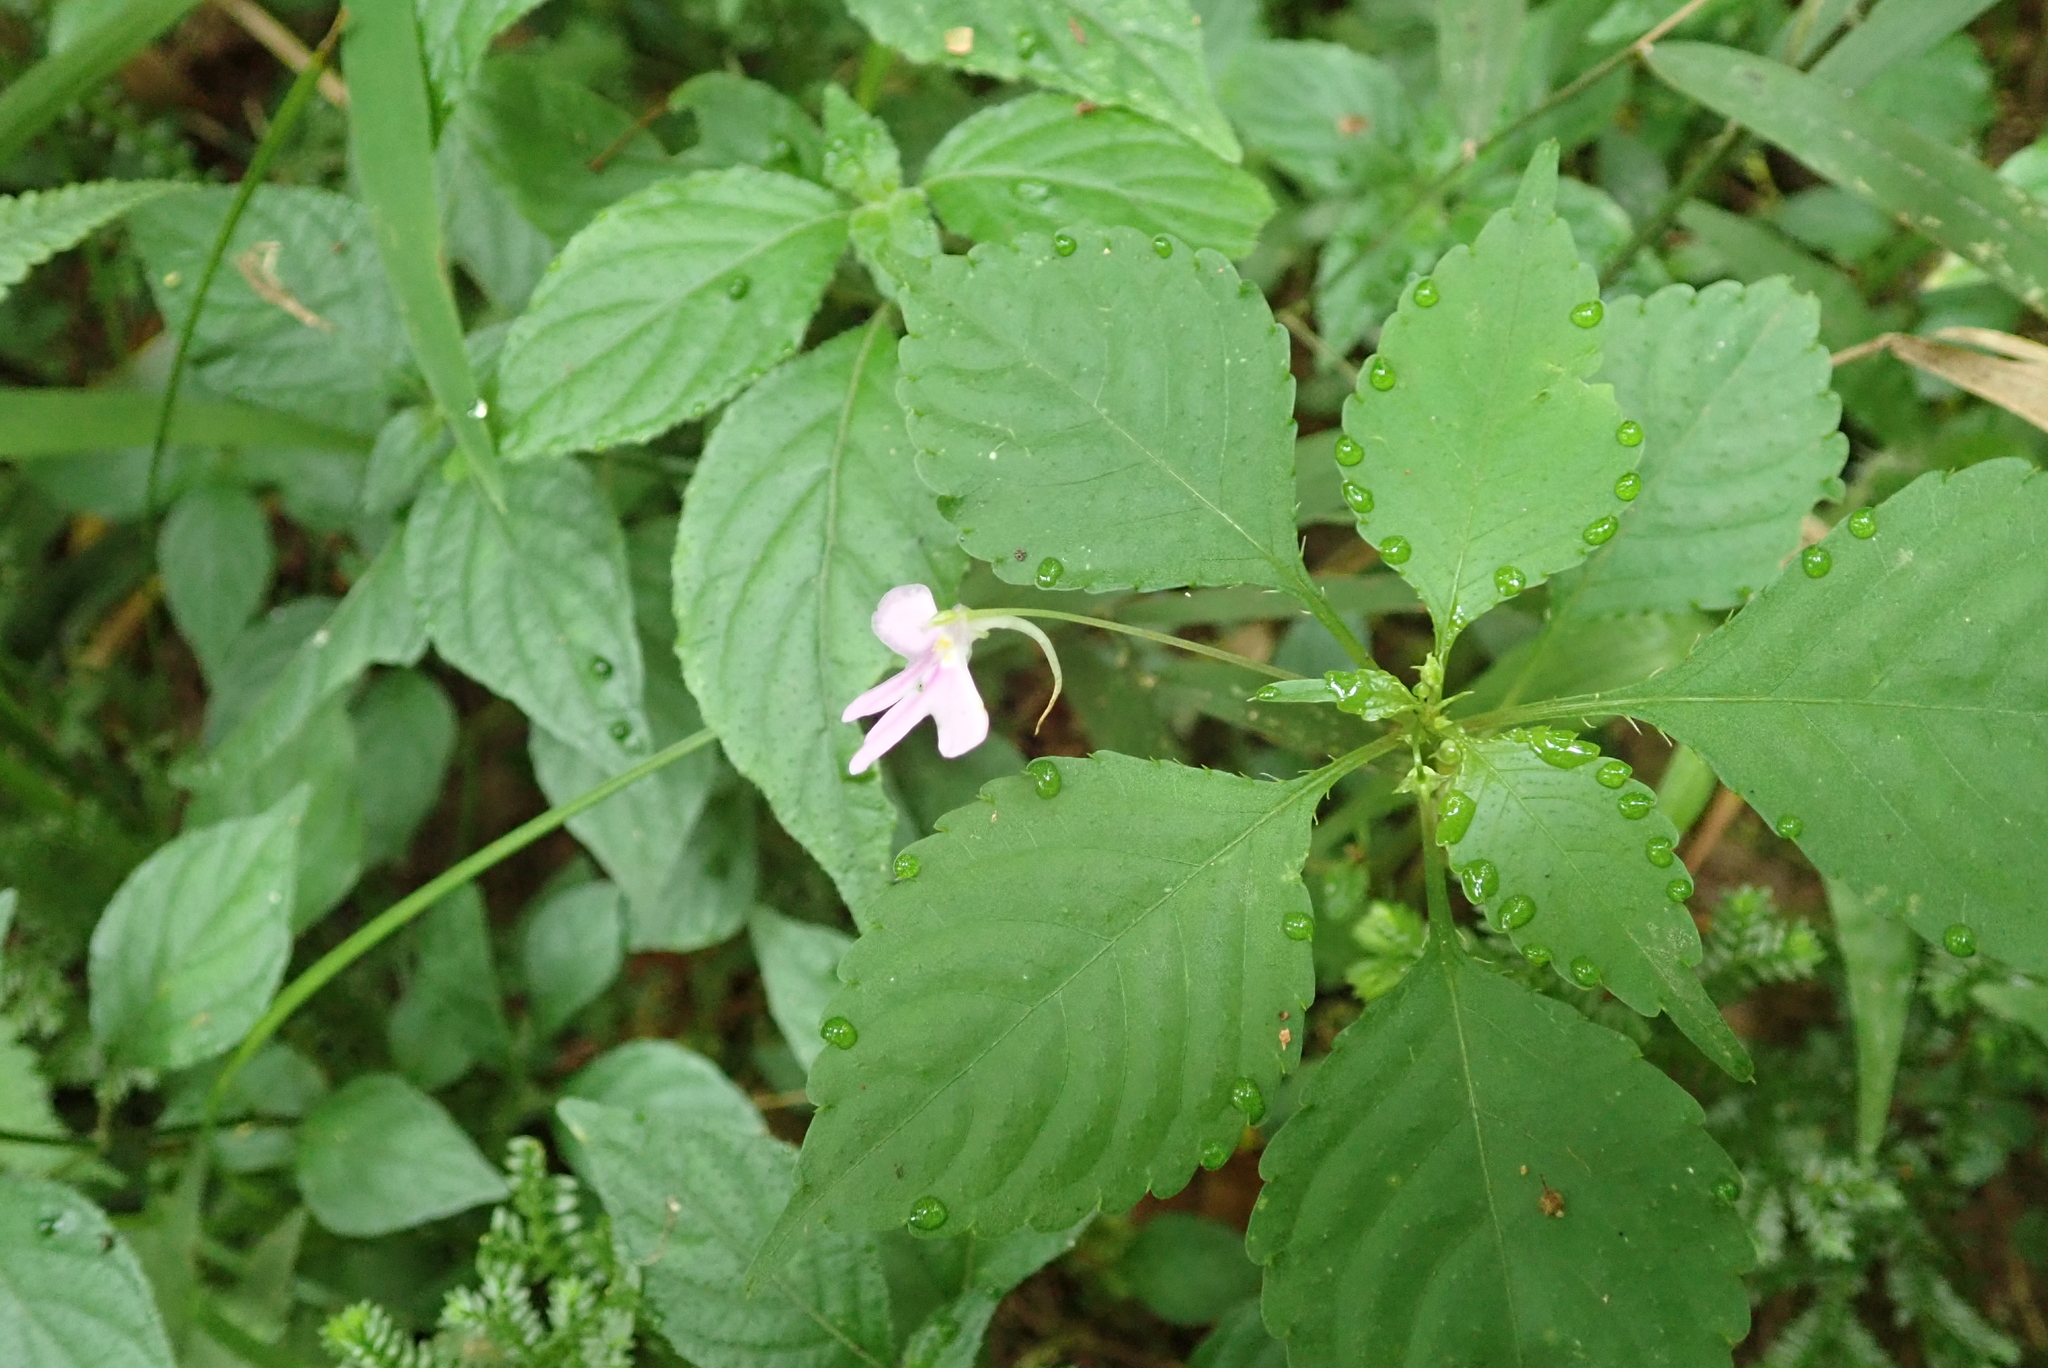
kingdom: Plantae
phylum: Tracheophyta
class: Magnoliopsida
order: Ericales
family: Balsaminaceae
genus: Impatiens
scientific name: Impatiens hochstetteri
